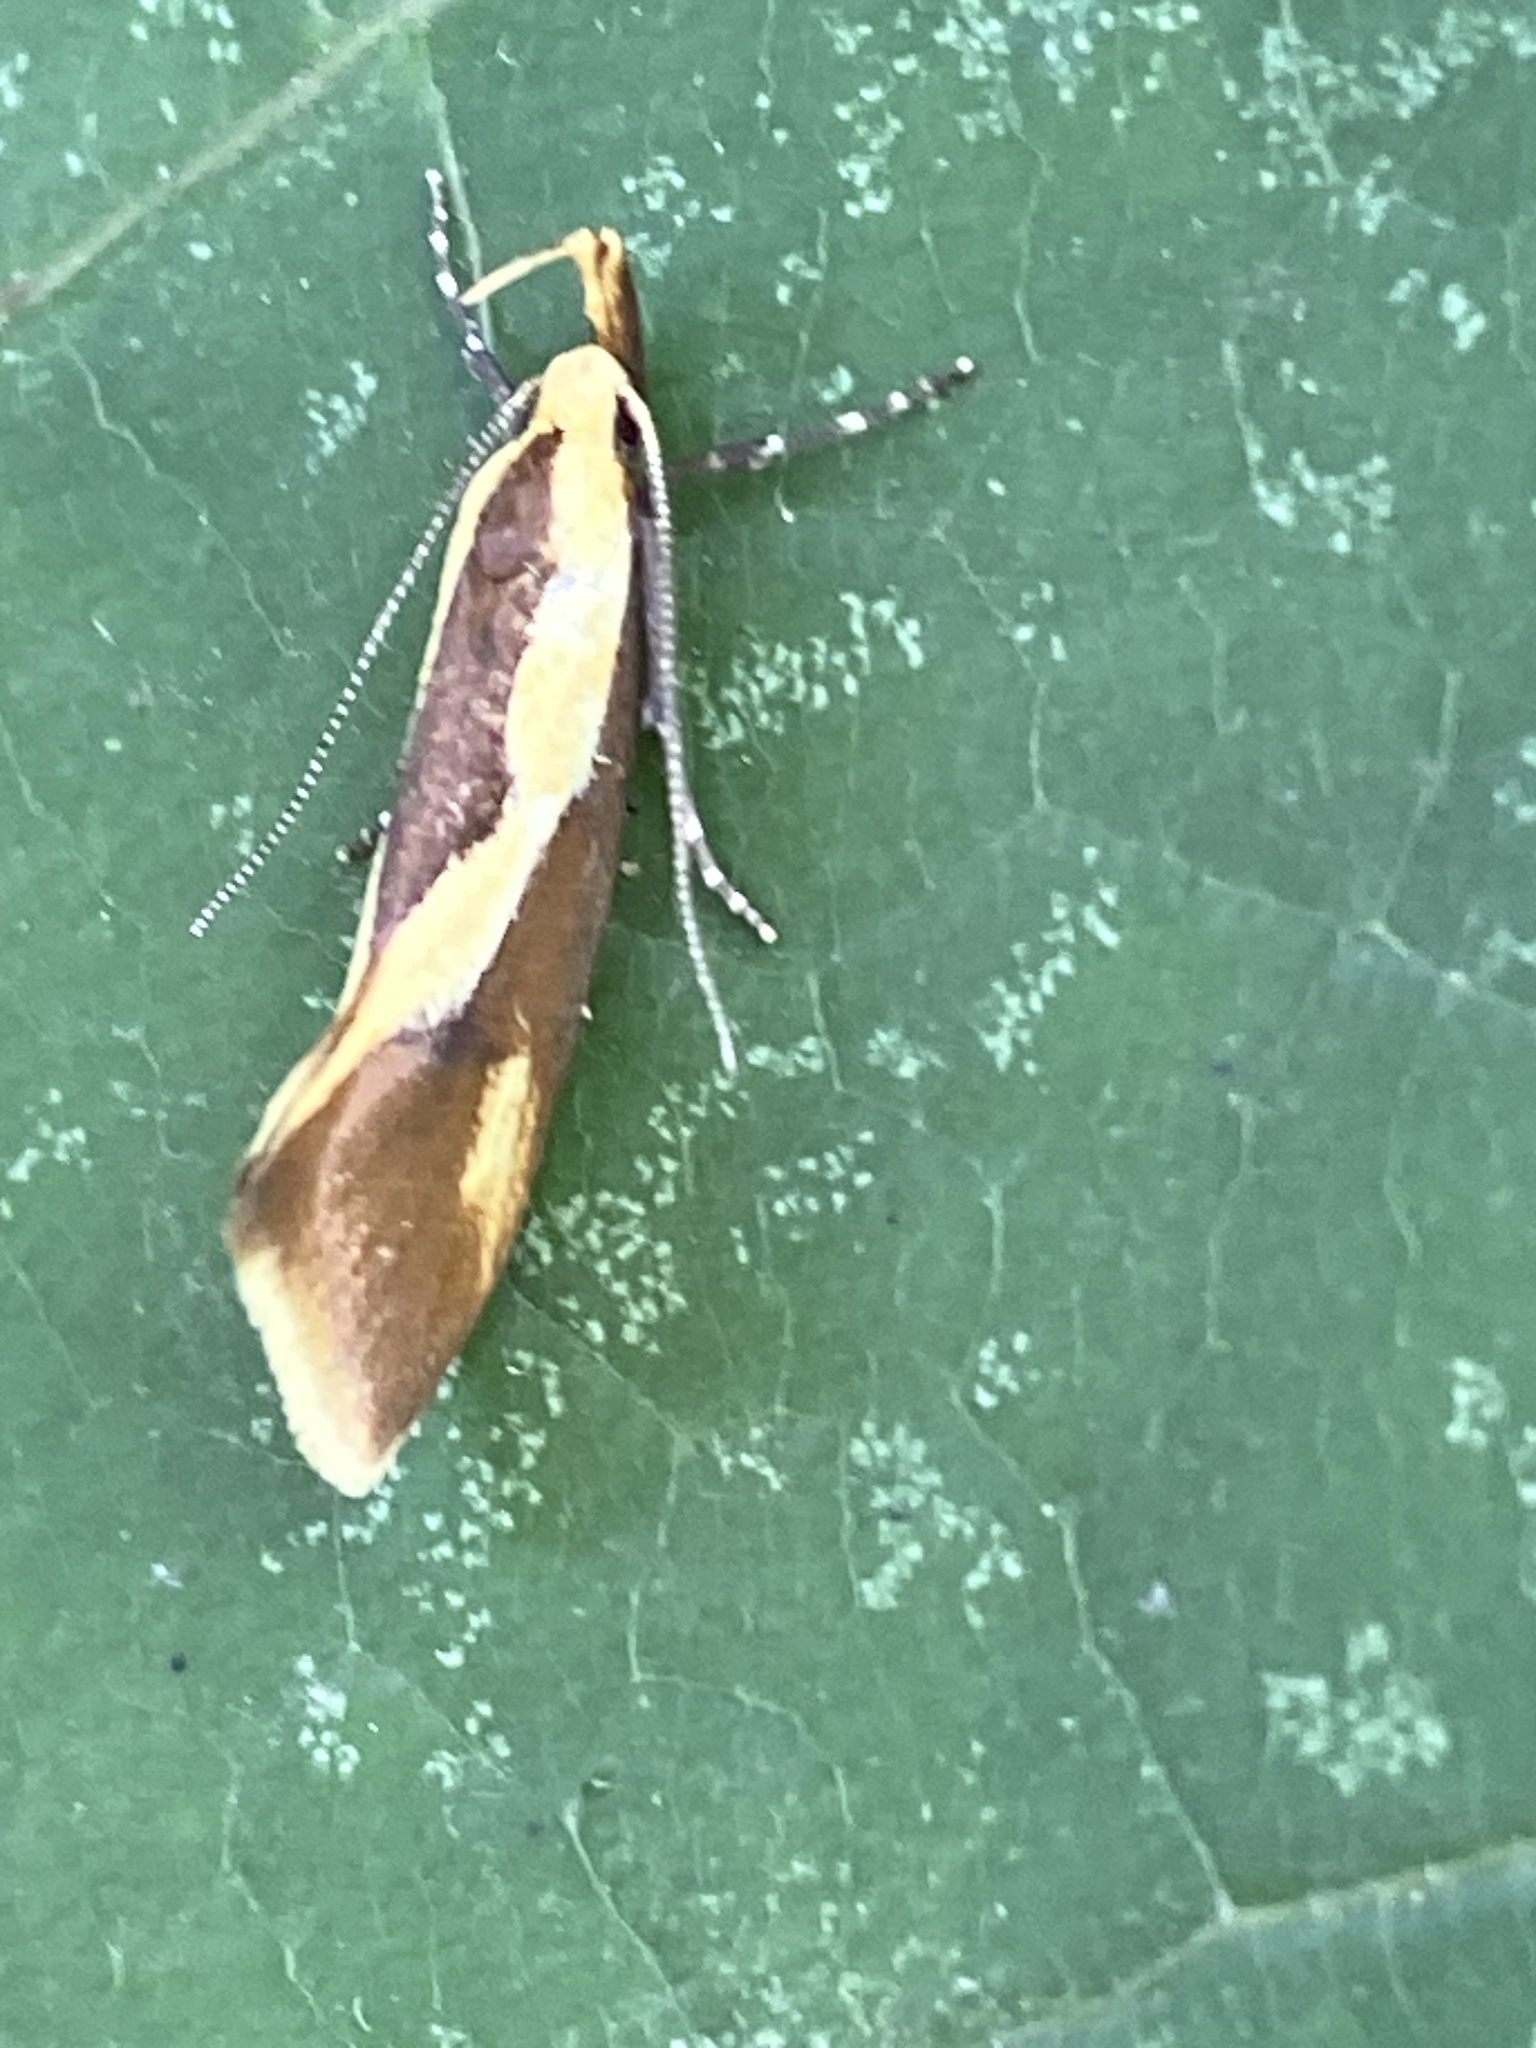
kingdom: Animalia
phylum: Arthropoda
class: Insecta
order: Lepidoptera
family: Oecophoridae
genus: Harpella
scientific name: Harpella forficella
